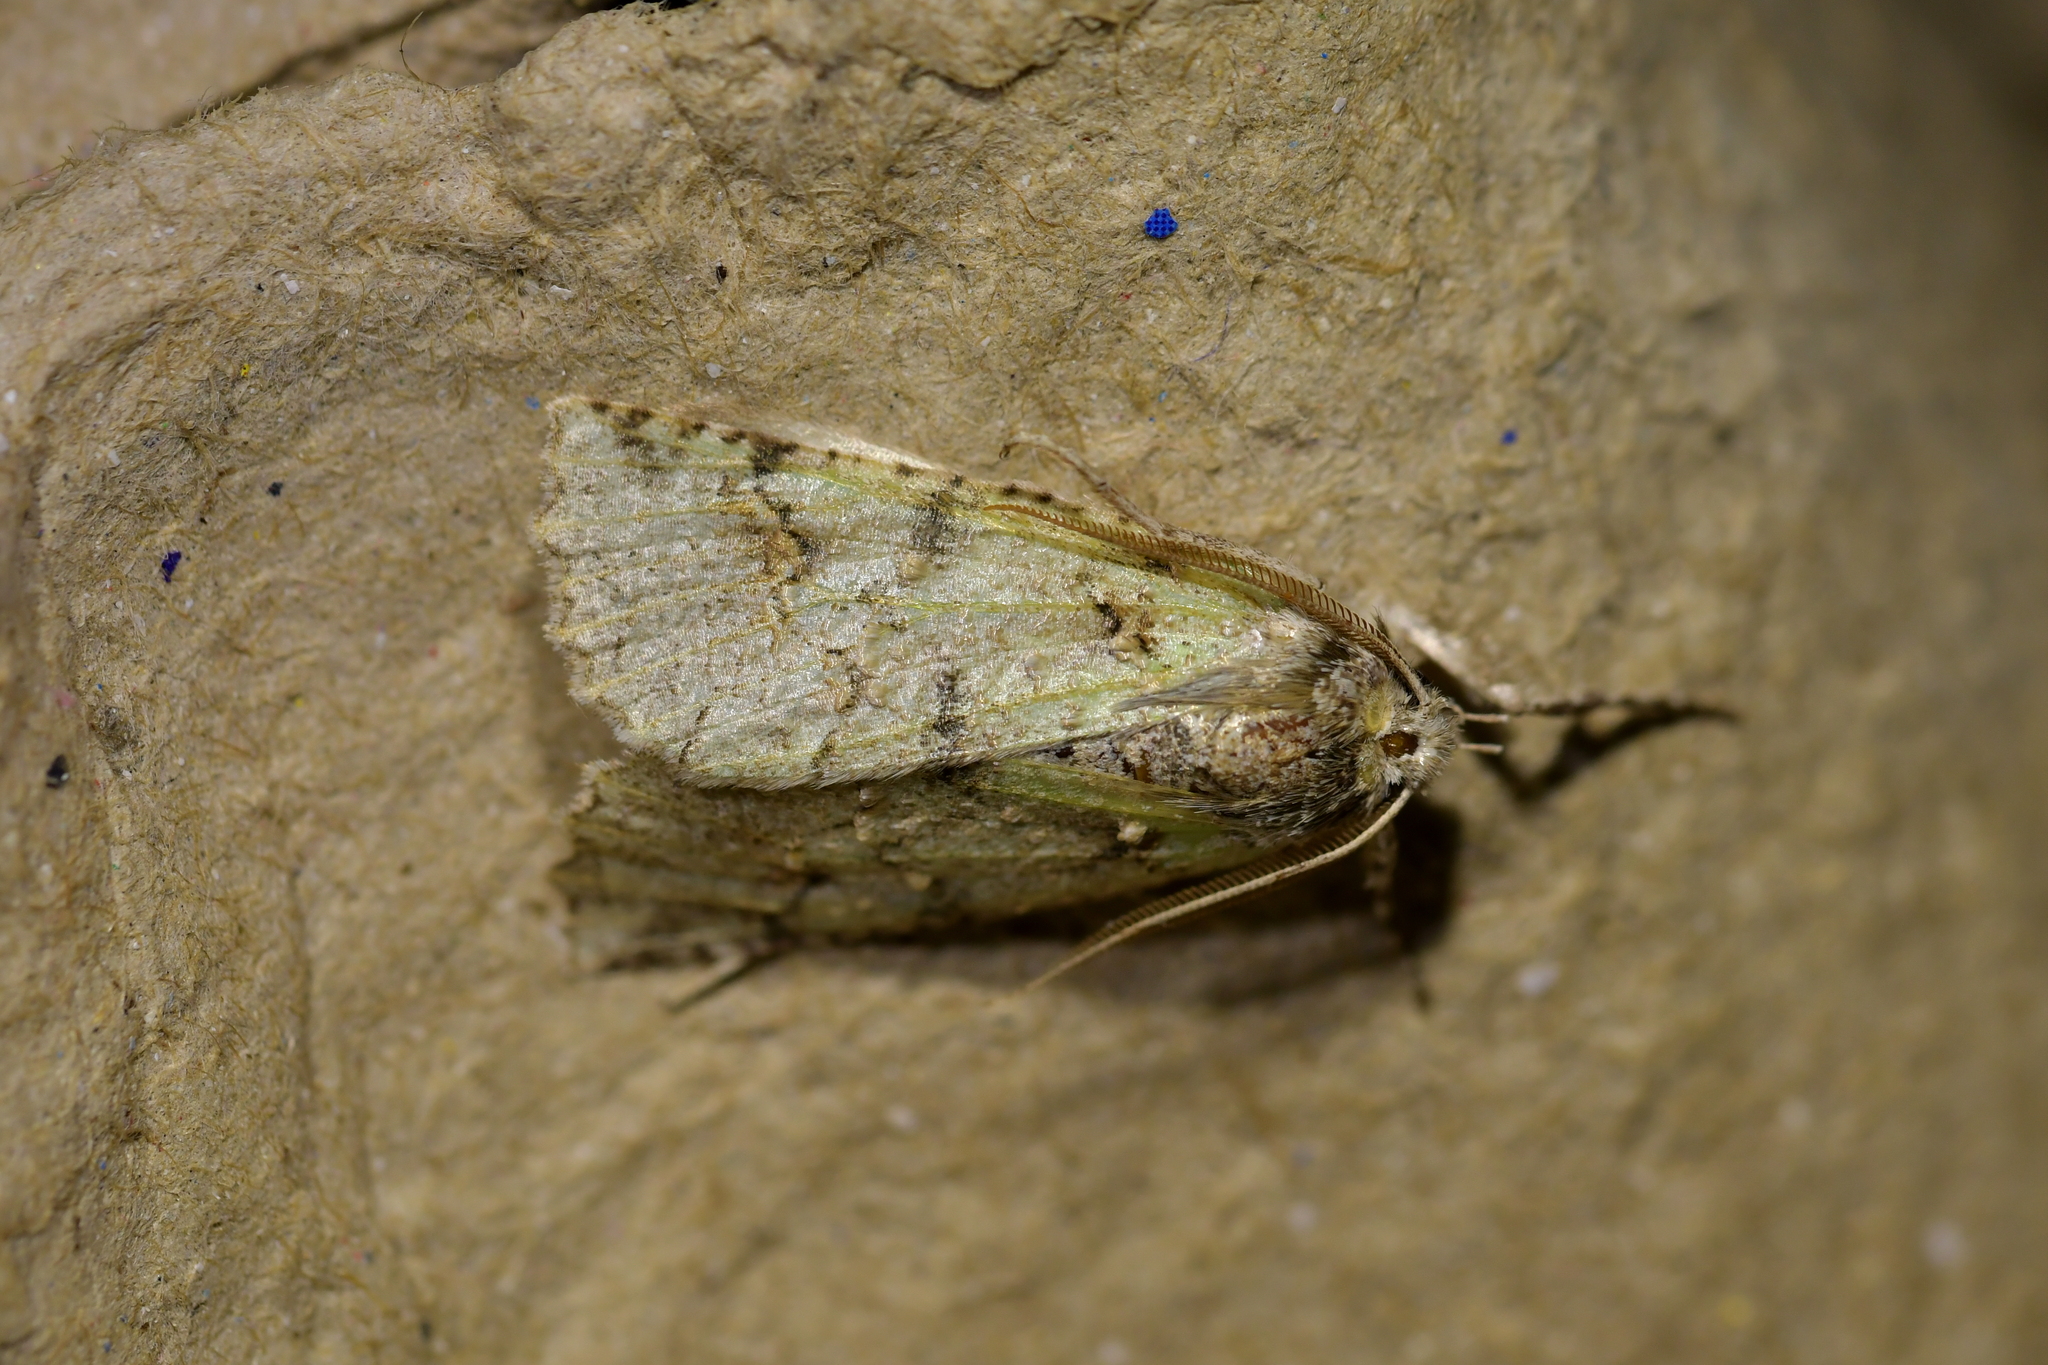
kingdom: Animalia
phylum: Arthropoda
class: Insecta
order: Lepidoptera
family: Geometridae
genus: Declana
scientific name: Declana floccosa
